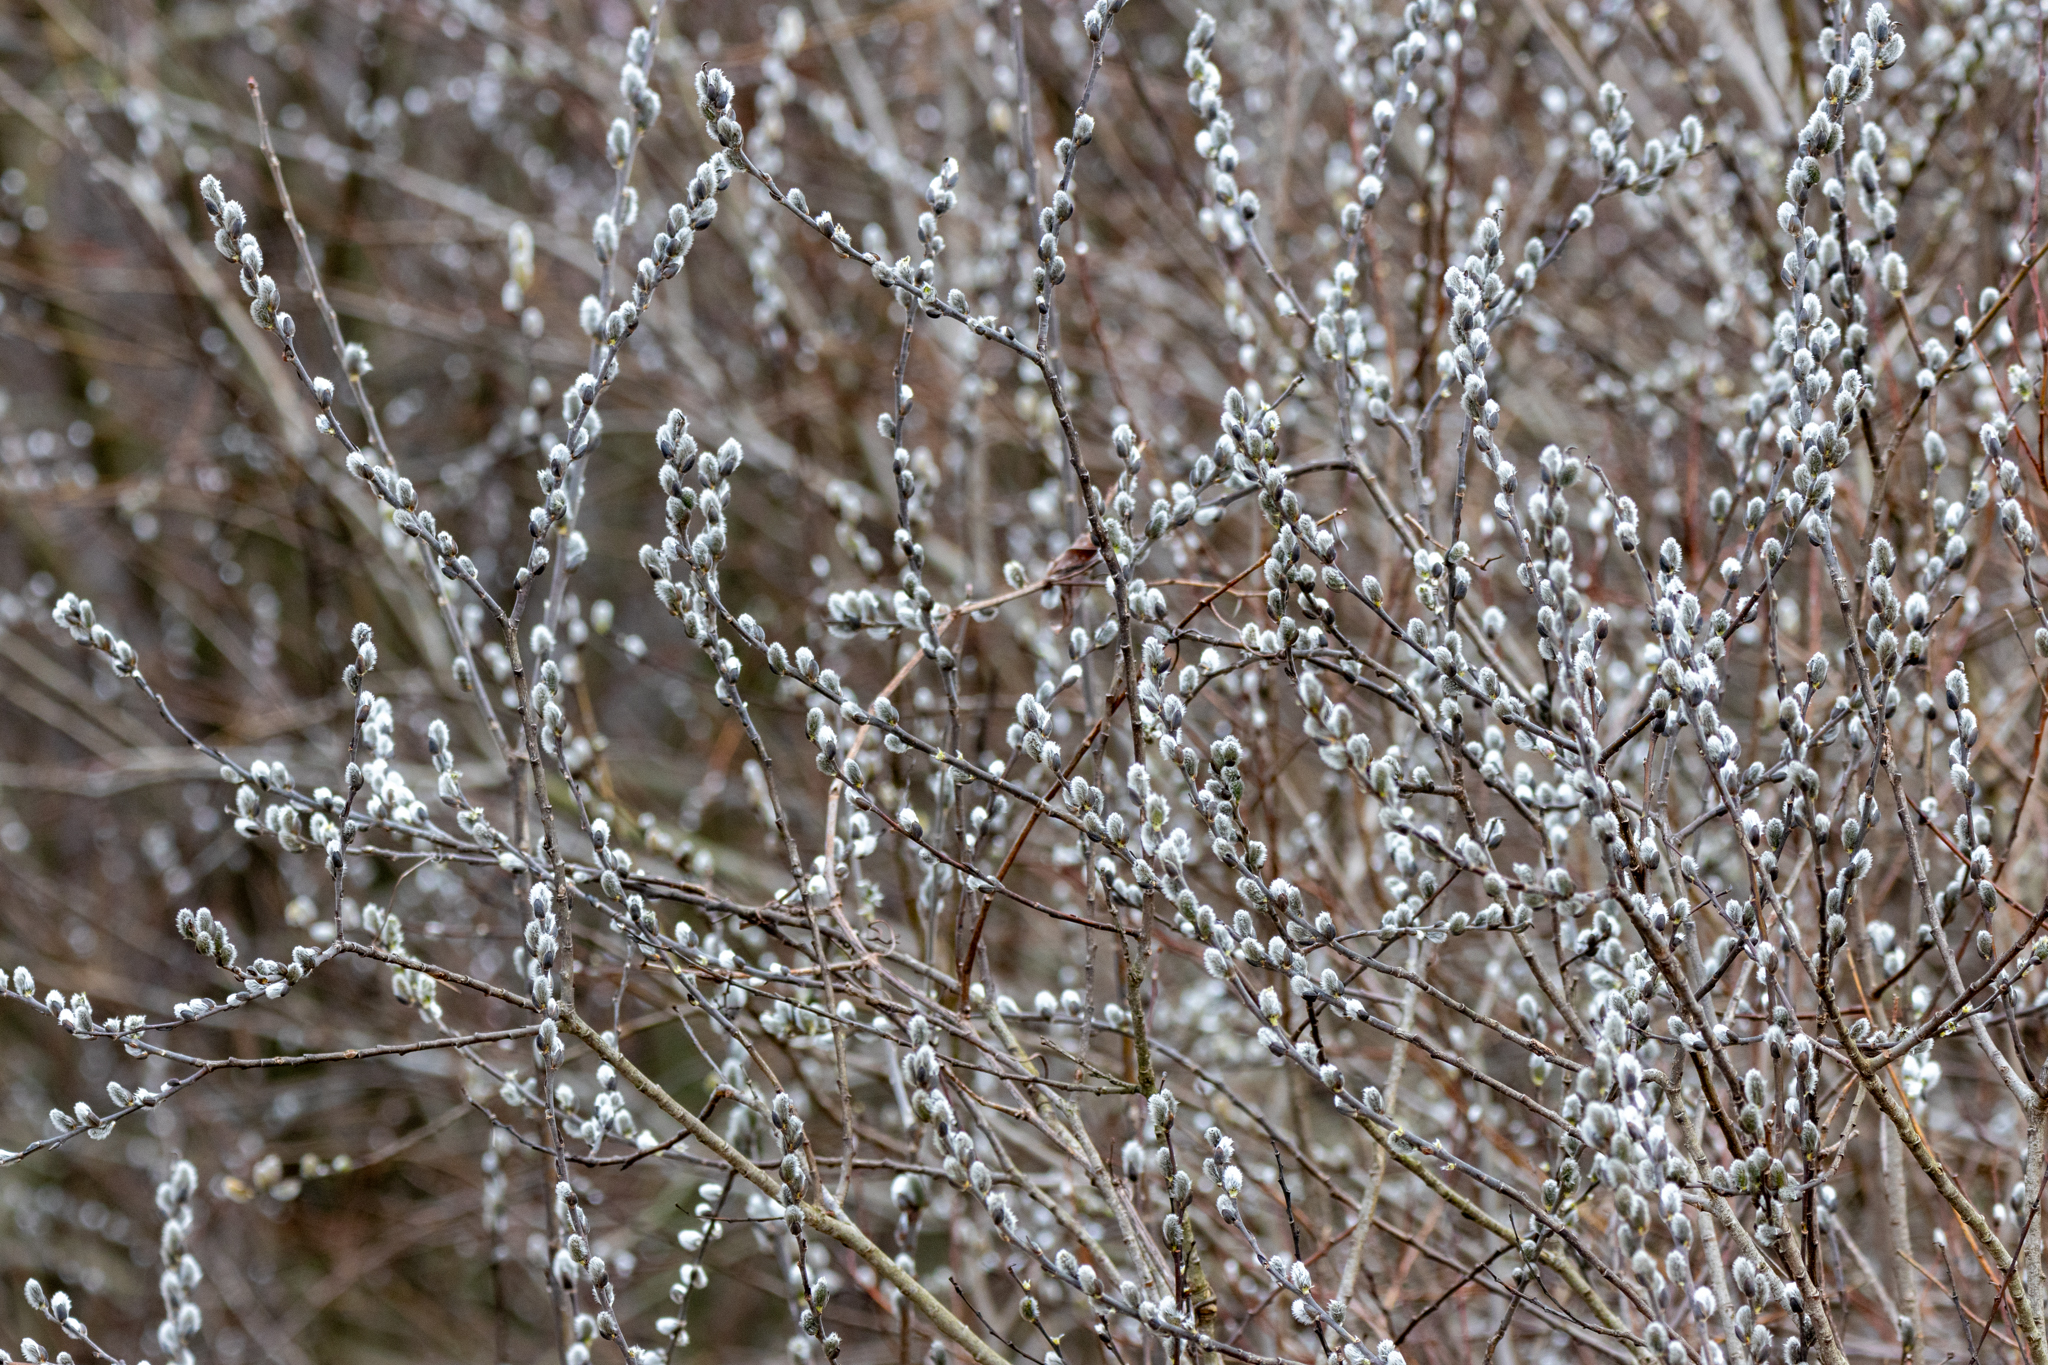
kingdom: Plantae
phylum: Tracheophyta
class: Magnoliopsida
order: Malpighiales
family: Salicaceae
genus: Salix
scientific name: Salix discolor
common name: Glaucous willow
